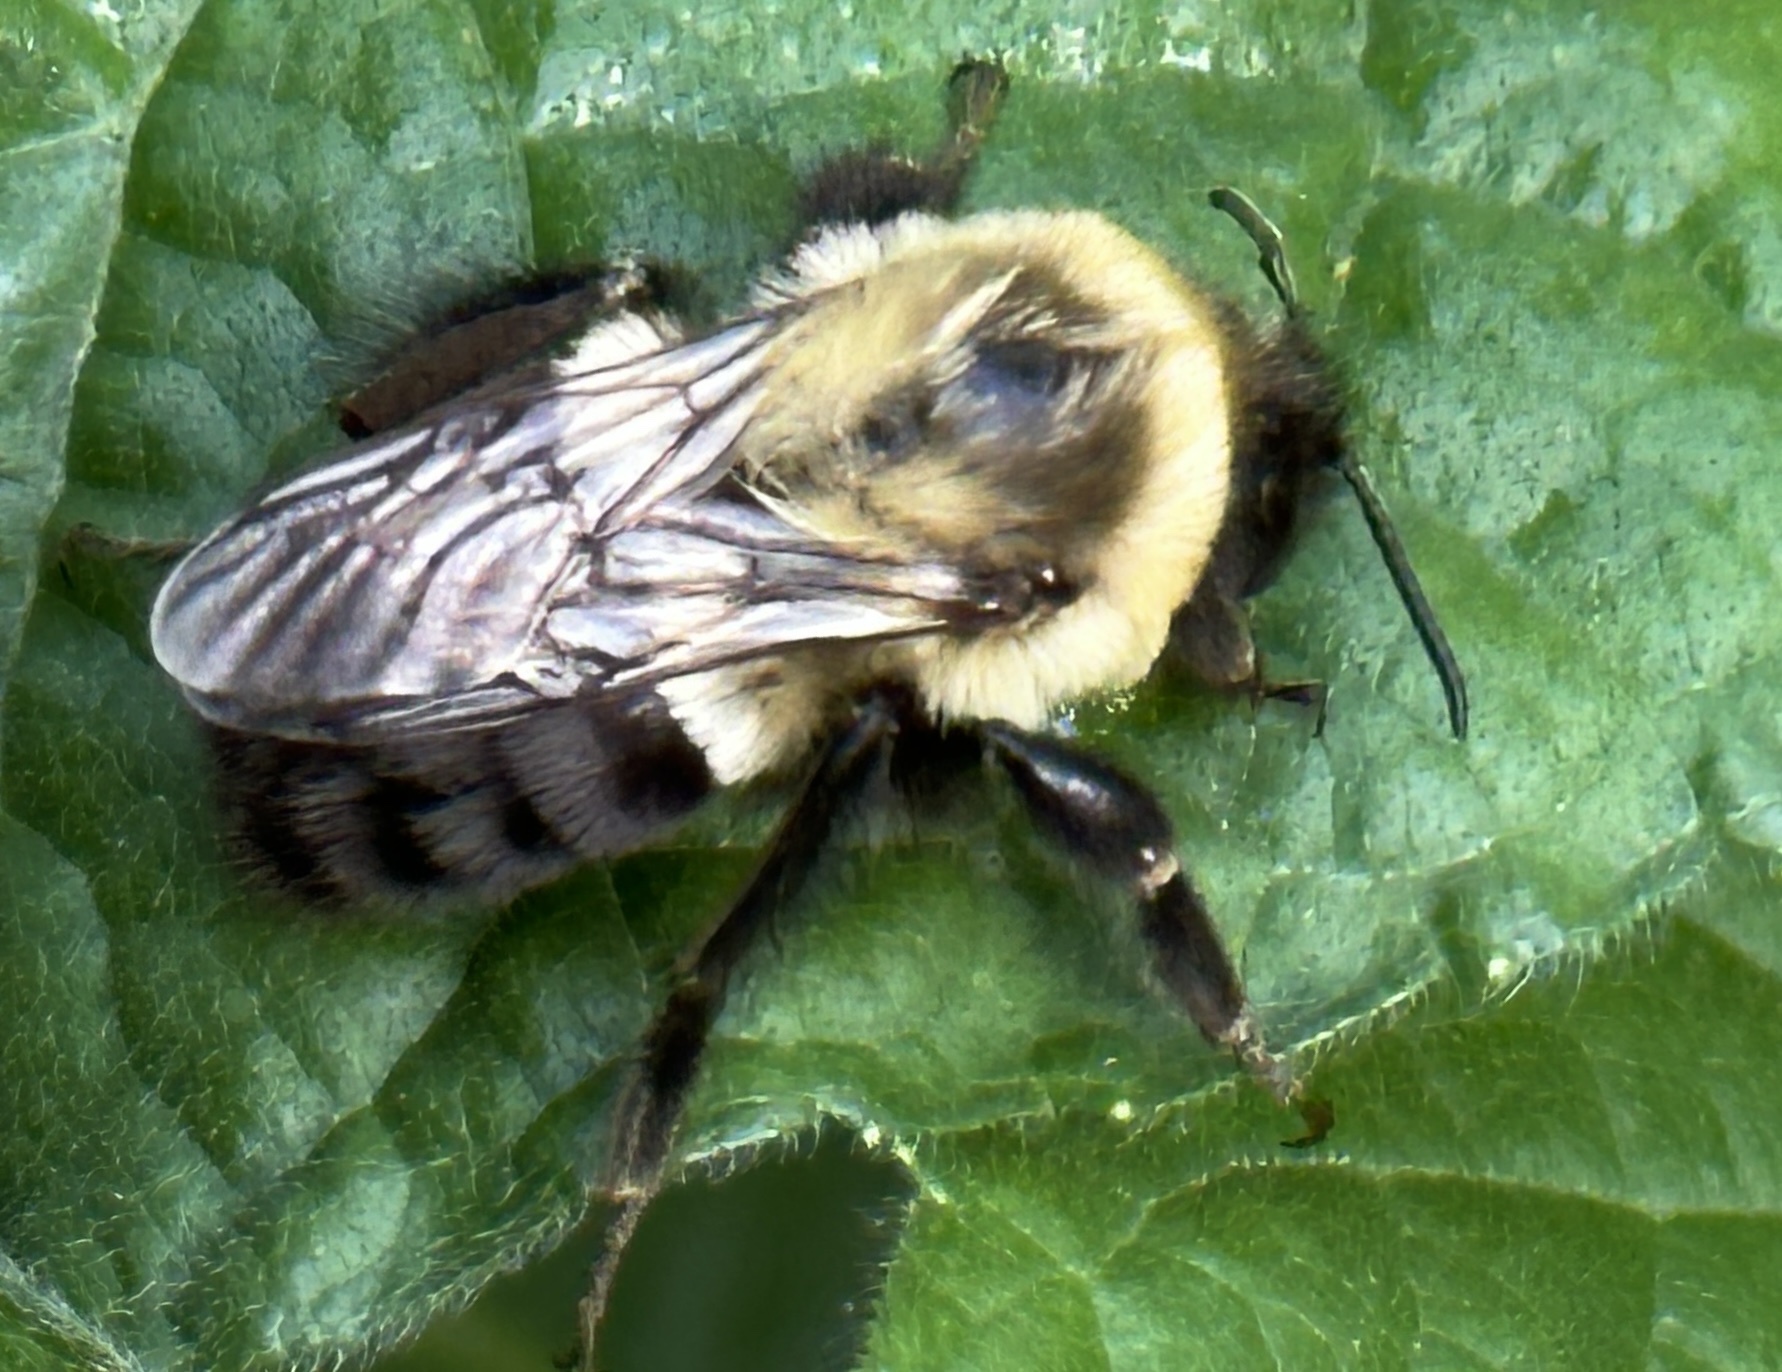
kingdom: Animalia
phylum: Arthropoda
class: Insecta
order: Hymenoptera
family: Apidae
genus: Bombus
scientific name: Bombus impatiens
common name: Common eastern bumble bee
